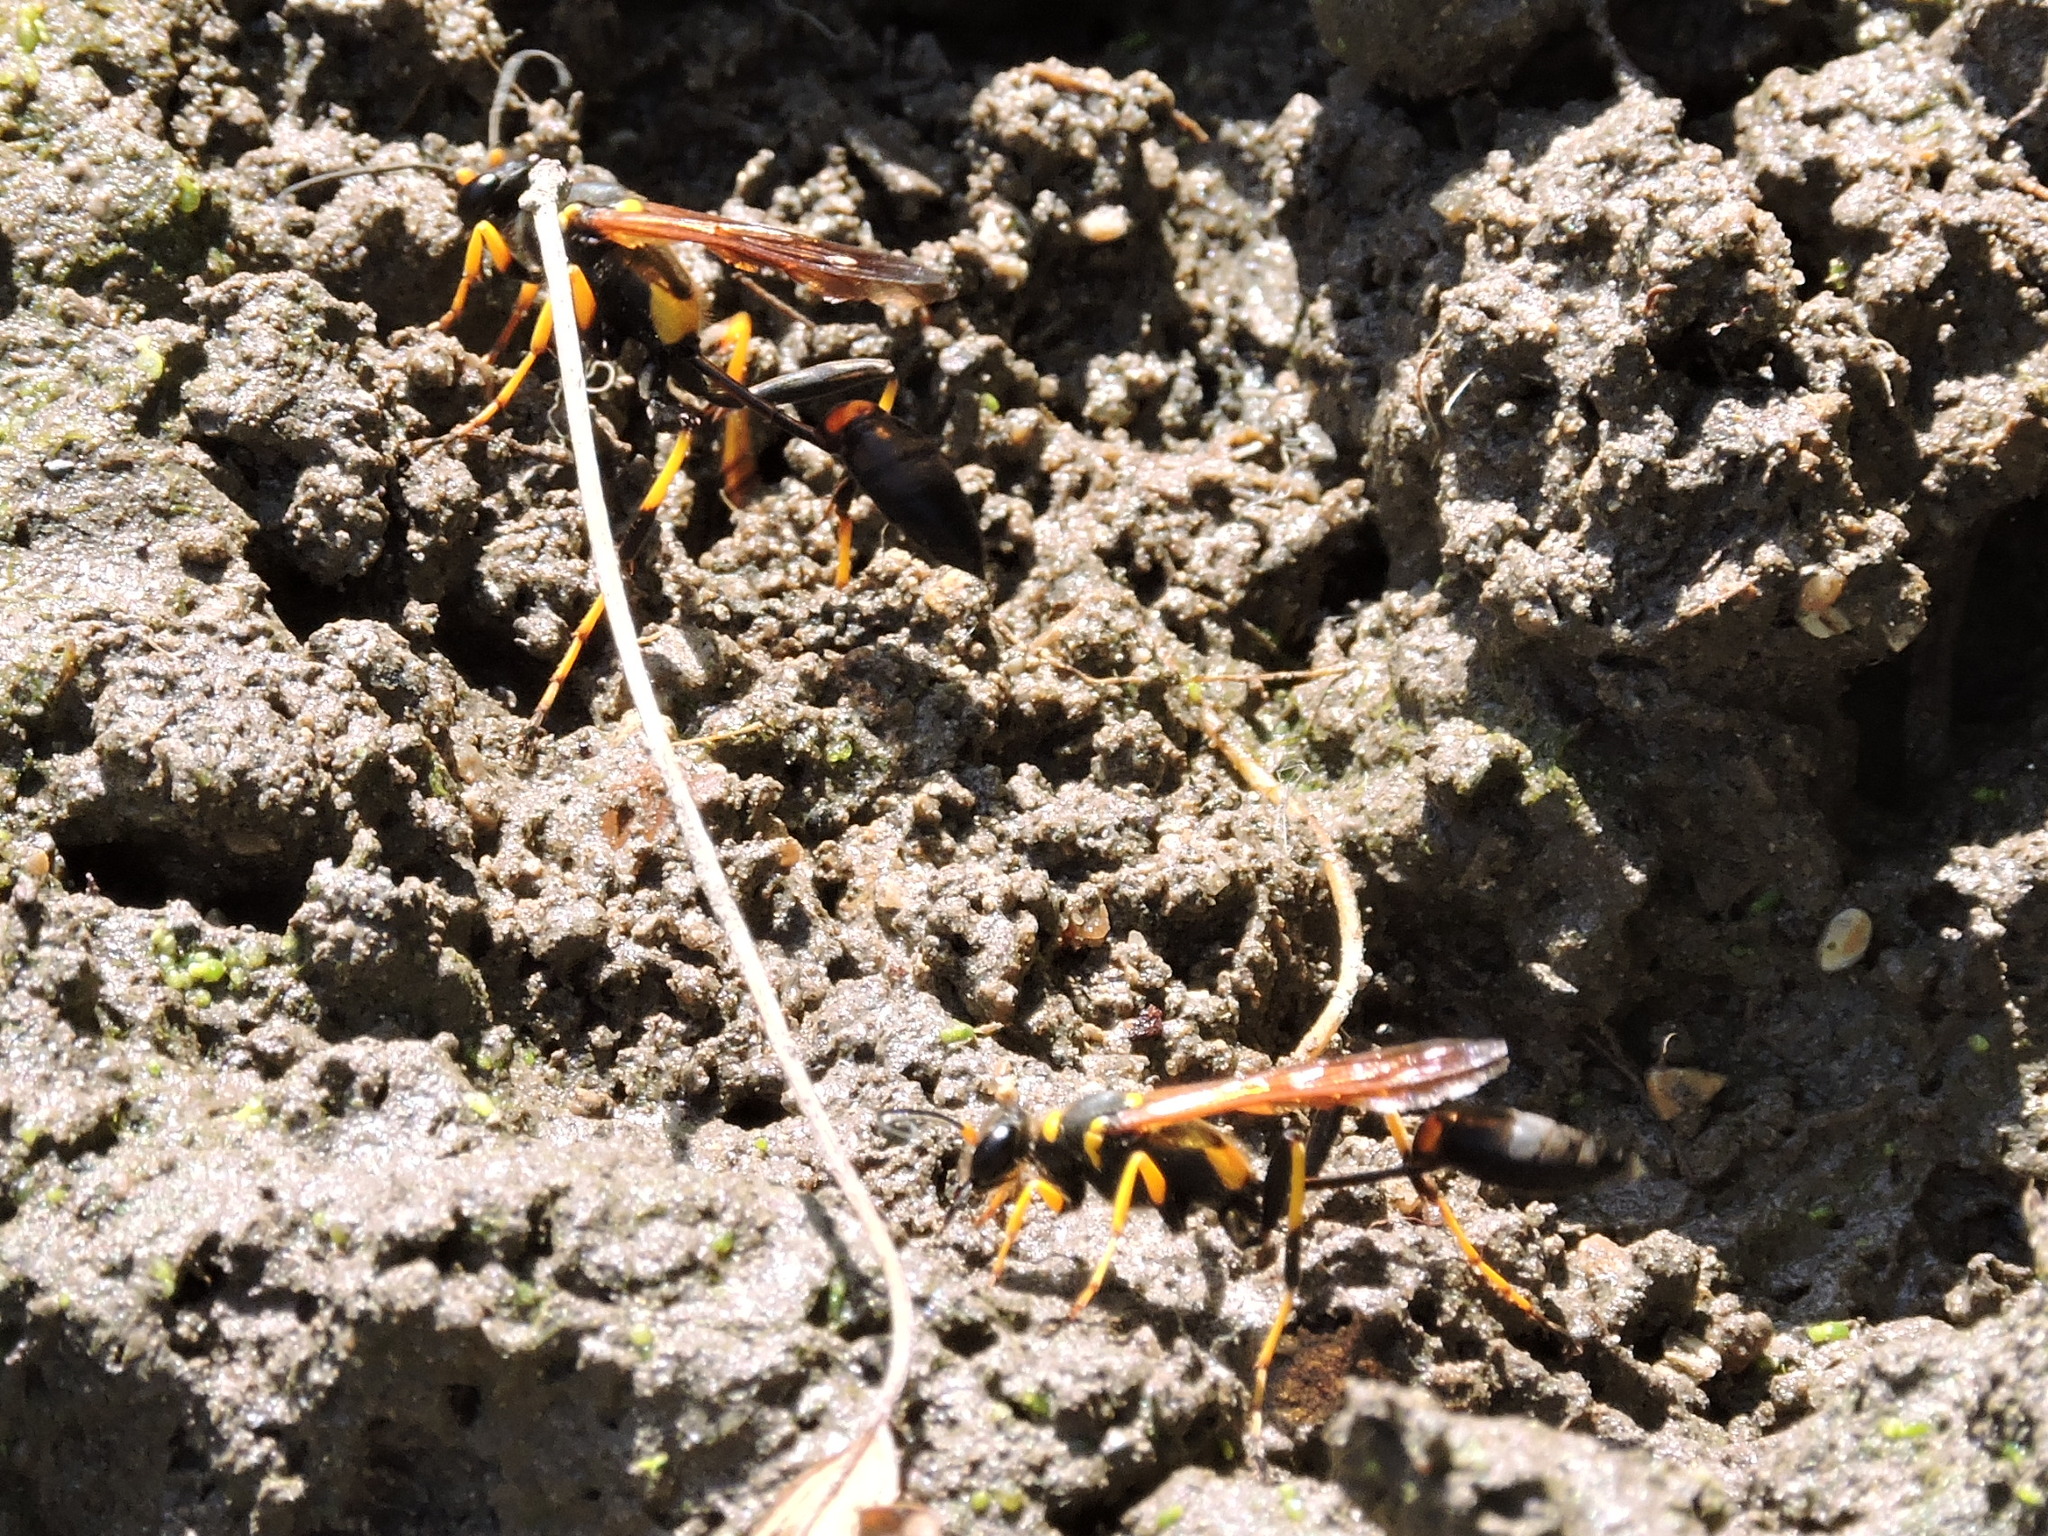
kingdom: Animalia
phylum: Arthropoda
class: Insecta
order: Hymenoptera
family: Sphecidae
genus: Sceliphron
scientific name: Sceliphron caementarium
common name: Mud dauber
